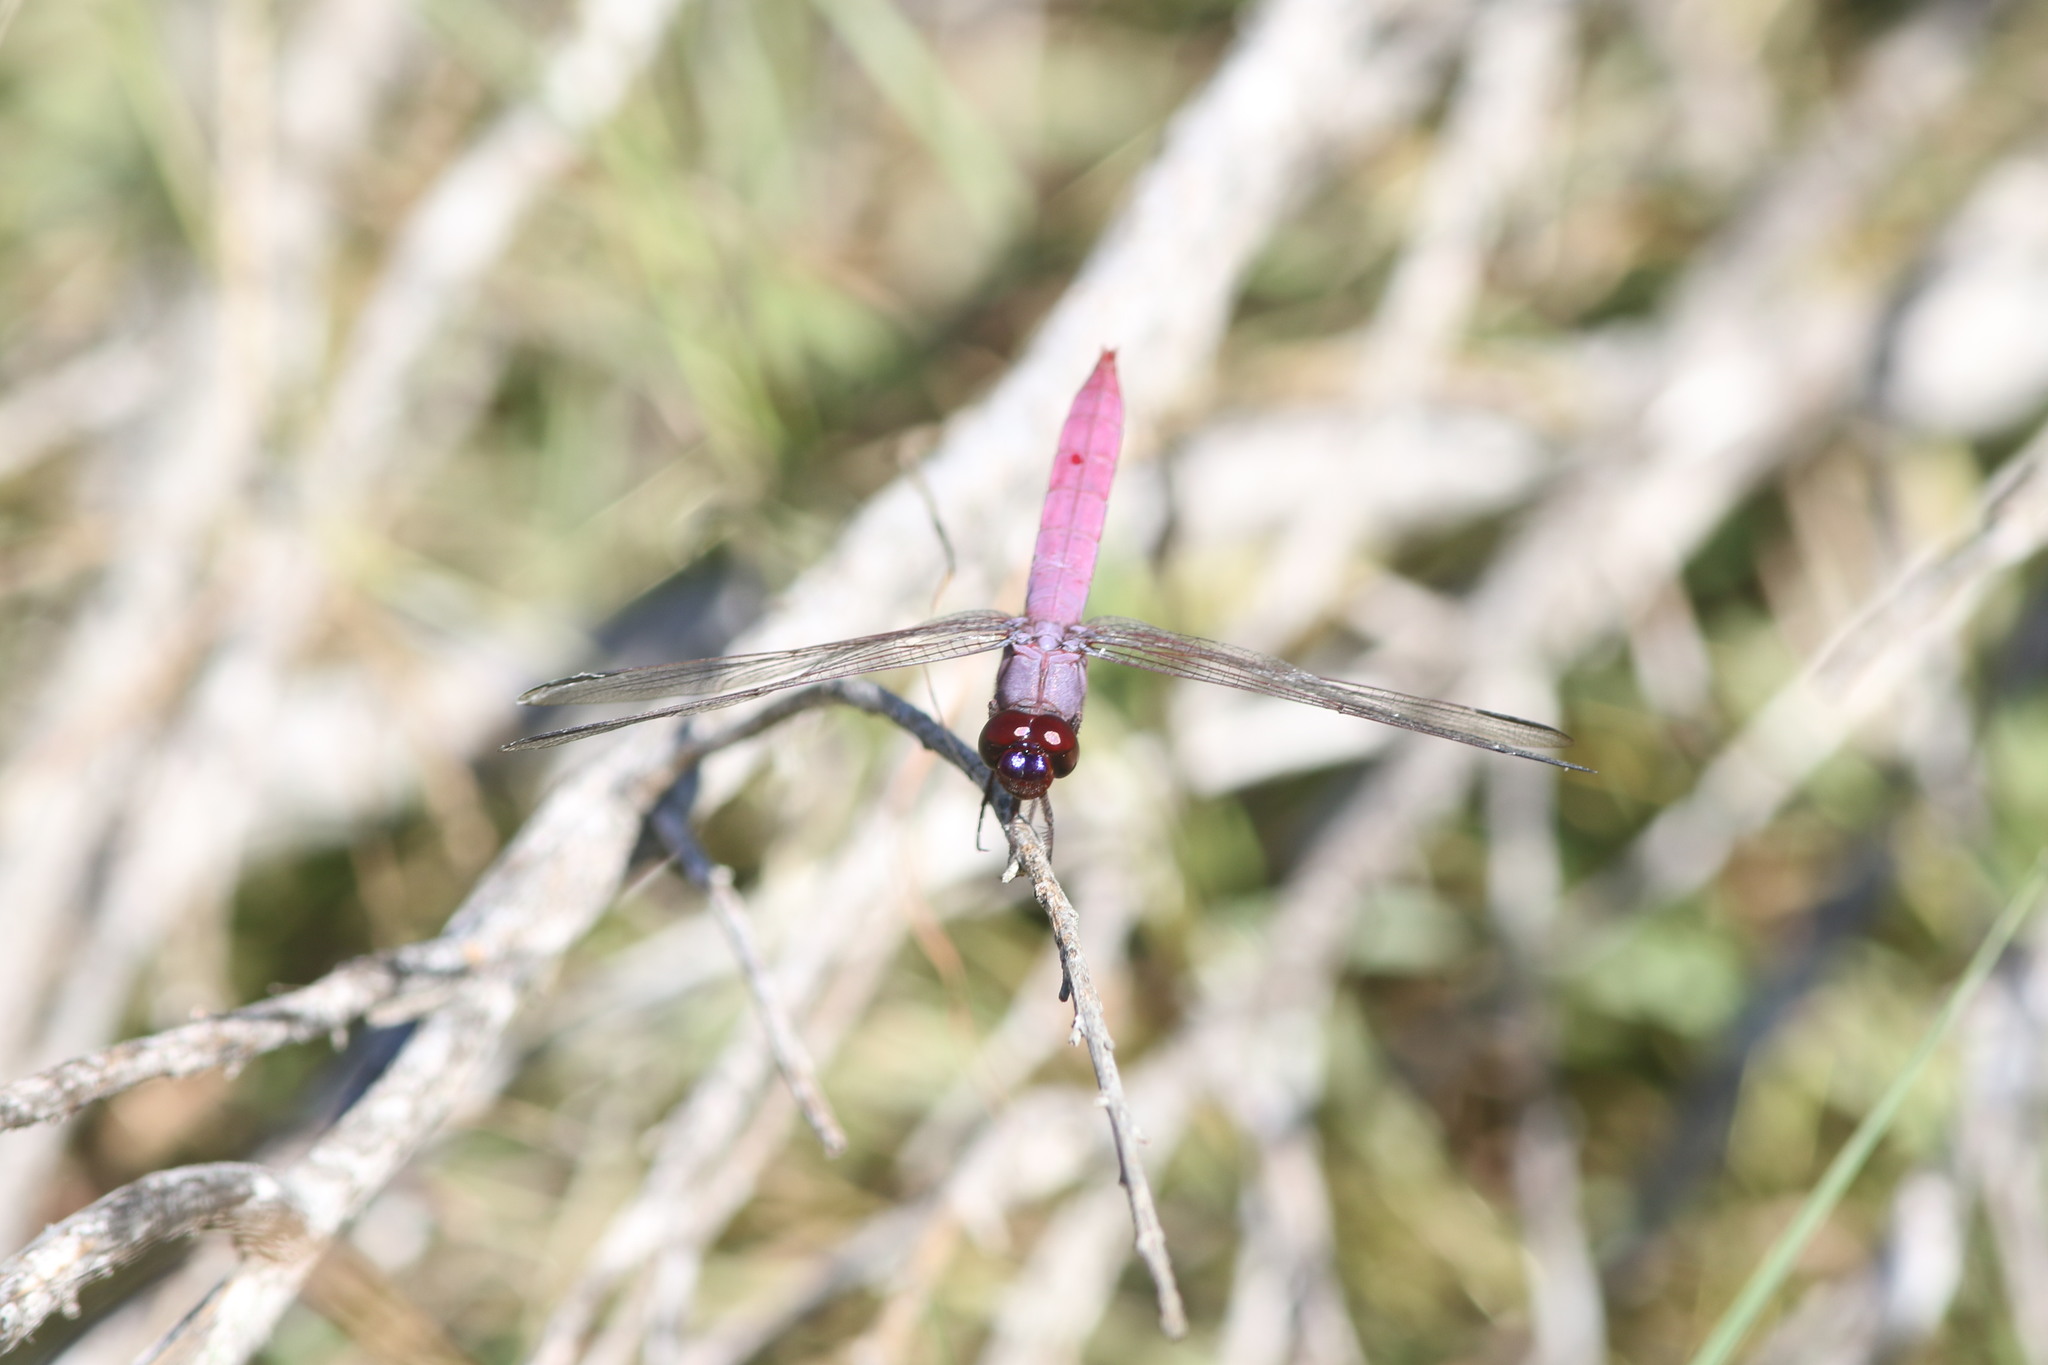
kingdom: Animalia
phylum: Arthropoda
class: Insecta
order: Odonata
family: Libellulidae
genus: Orthemis
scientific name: Orthemis ferruginea
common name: Roseate skimmer
